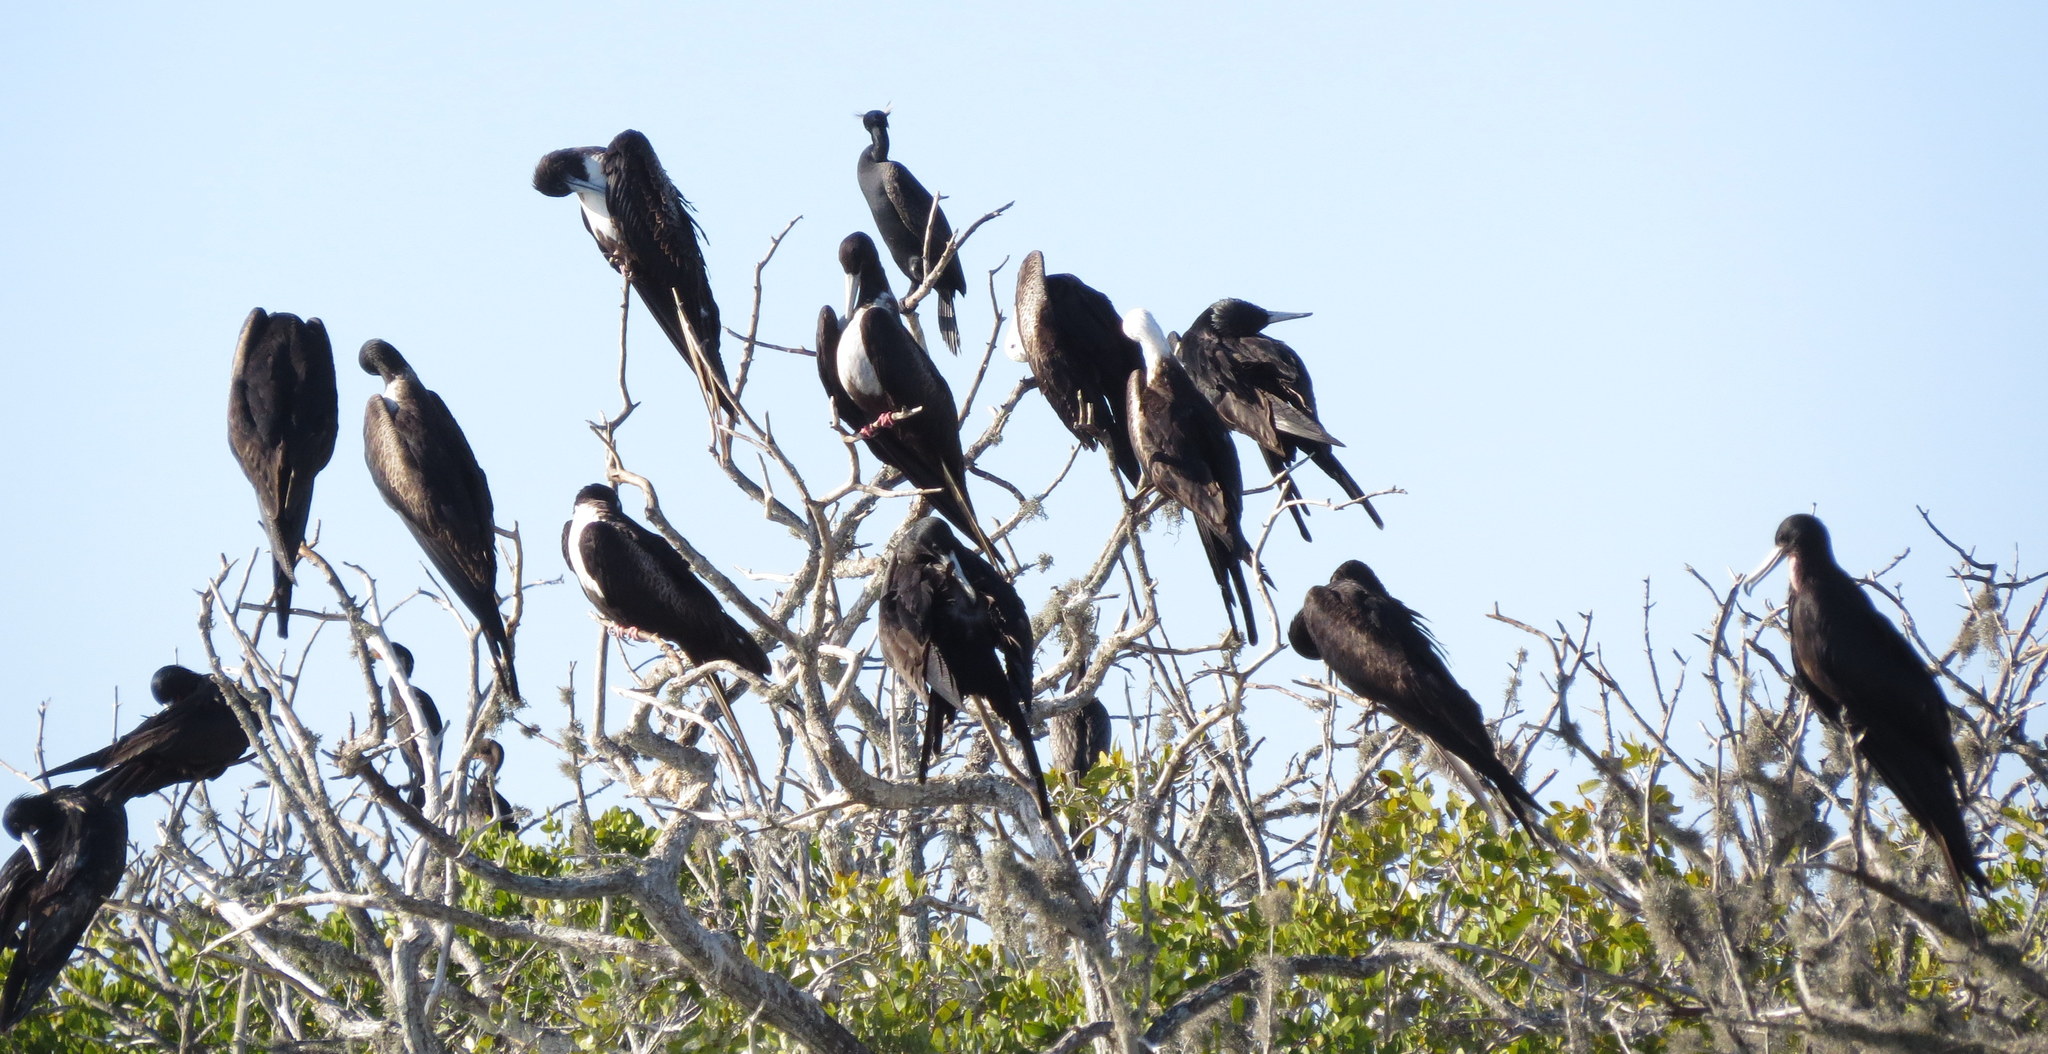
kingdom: Animalia
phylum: Chordata
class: Aves
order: Suliformes
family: Fregatidae
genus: Fregata
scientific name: Fregata magnificens
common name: Magnificent frigatebird
